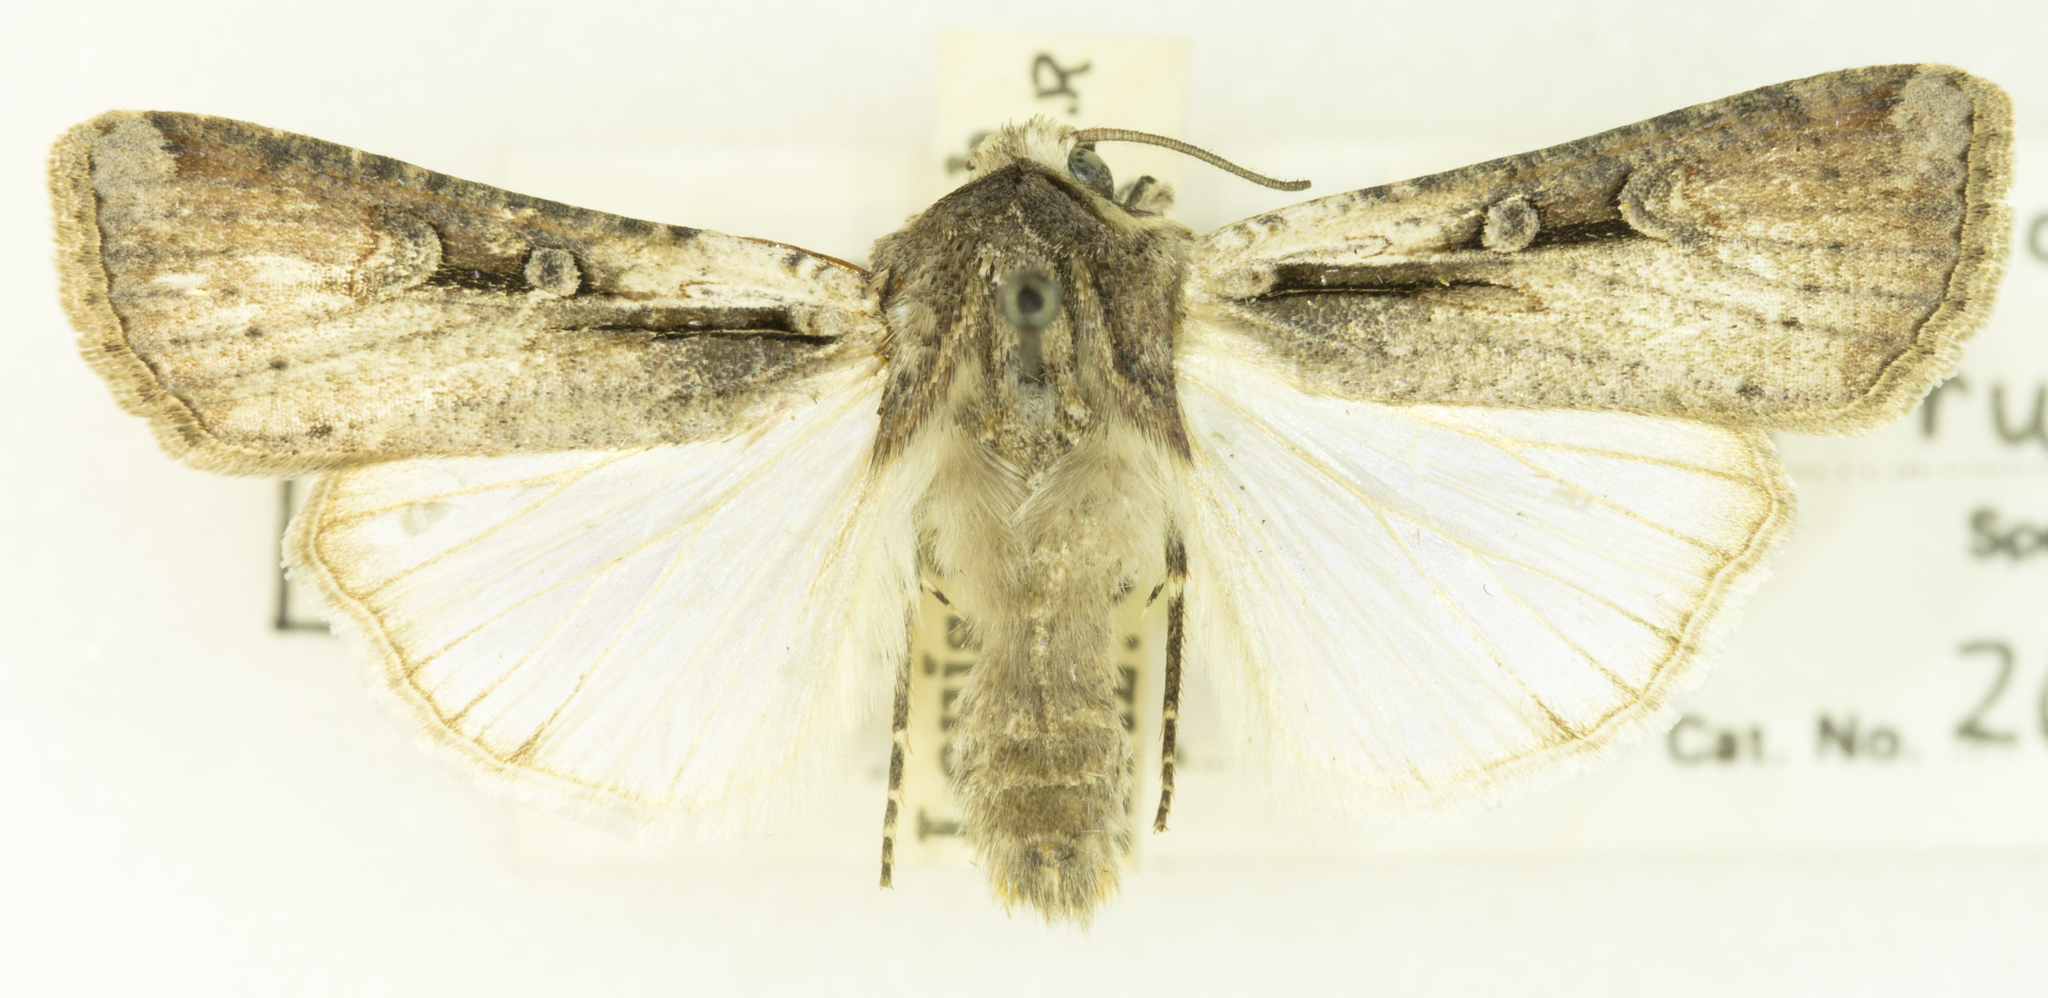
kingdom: Animalia
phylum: Arthropoda
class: Insecta
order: Lepidoptera
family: Noctuidae
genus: Hemieuxoa
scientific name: Hemieuxoa rudens
